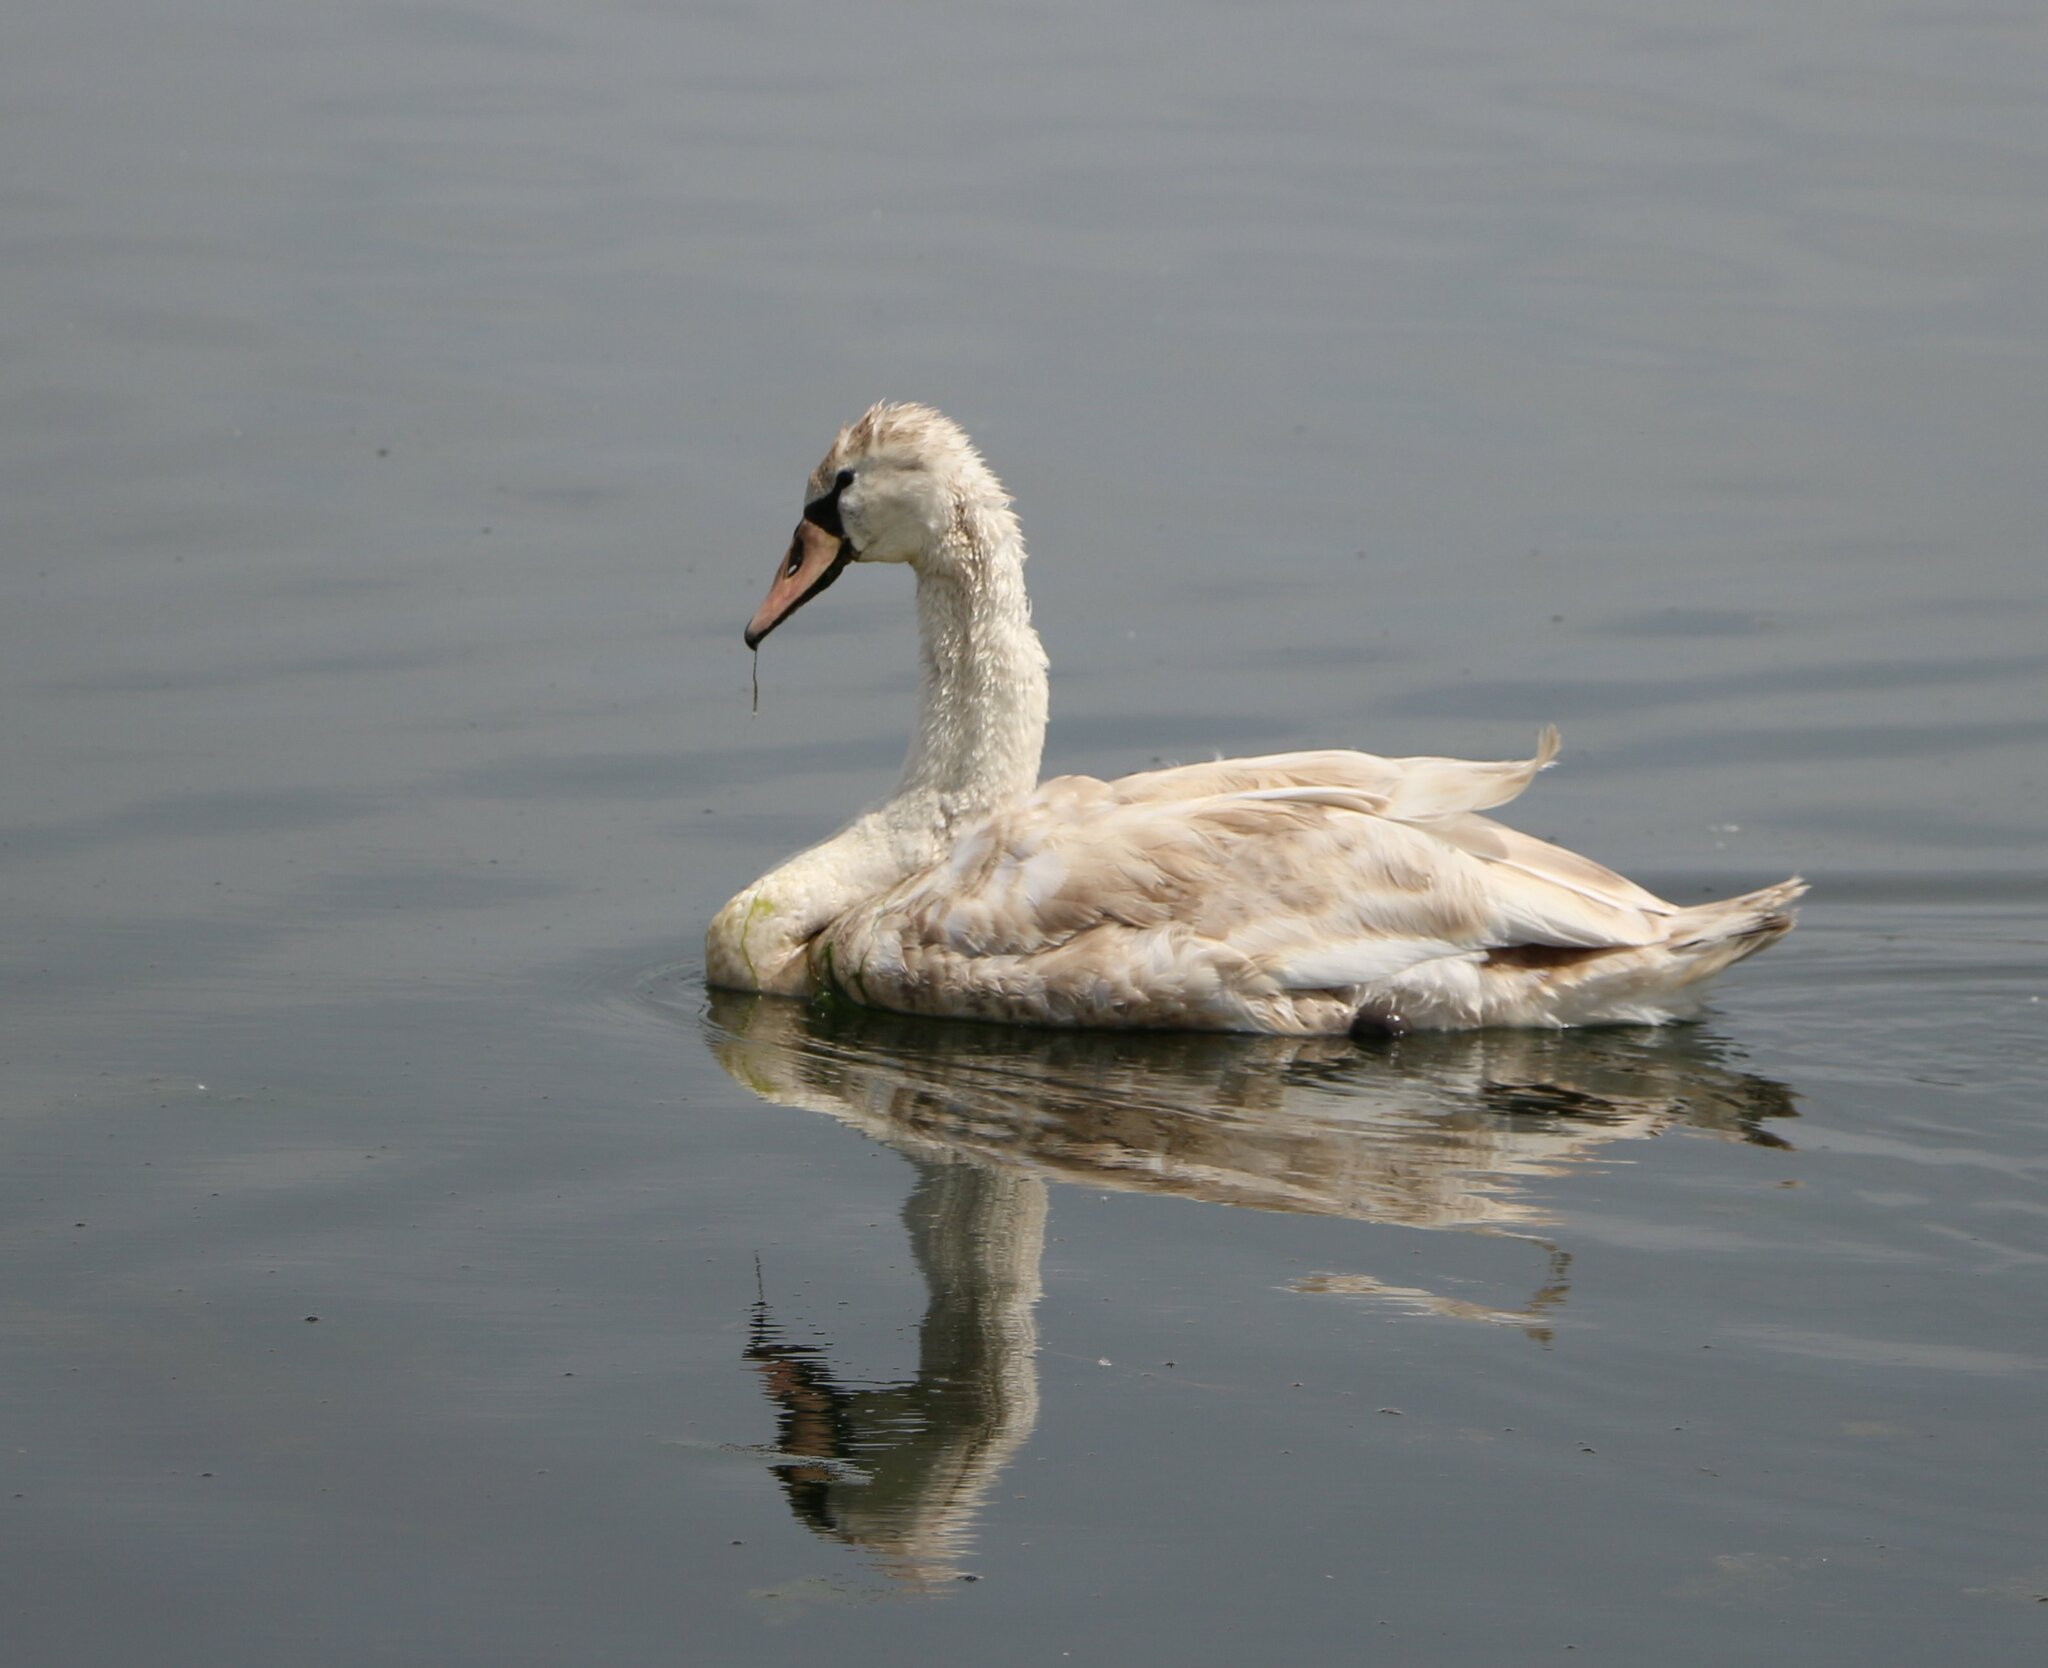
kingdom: Animalia
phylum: Chordata
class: Aves
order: Anseriformes
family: Anatidae
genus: Cygnus
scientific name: Cygnus olor
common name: Mute swan
